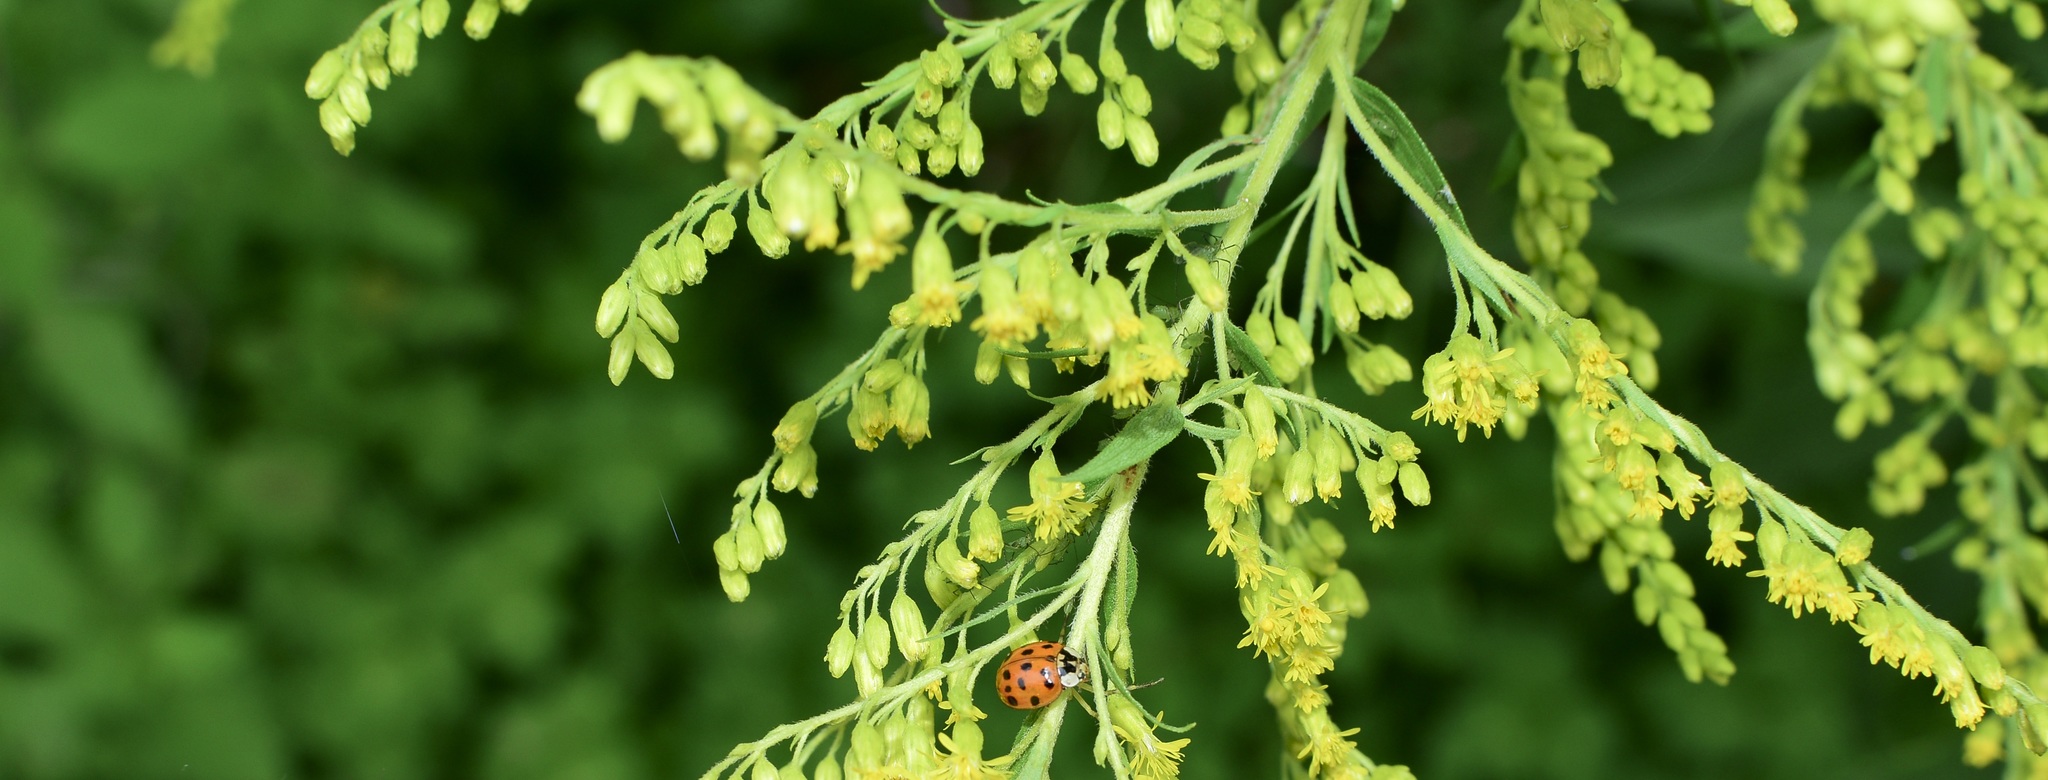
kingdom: Animalia
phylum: Arthropoda
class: Insecta
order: Coleoptera
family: Coccinellidae
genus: Harmonia
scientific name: Harmonia axyridis
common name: Harlequin ladybird
